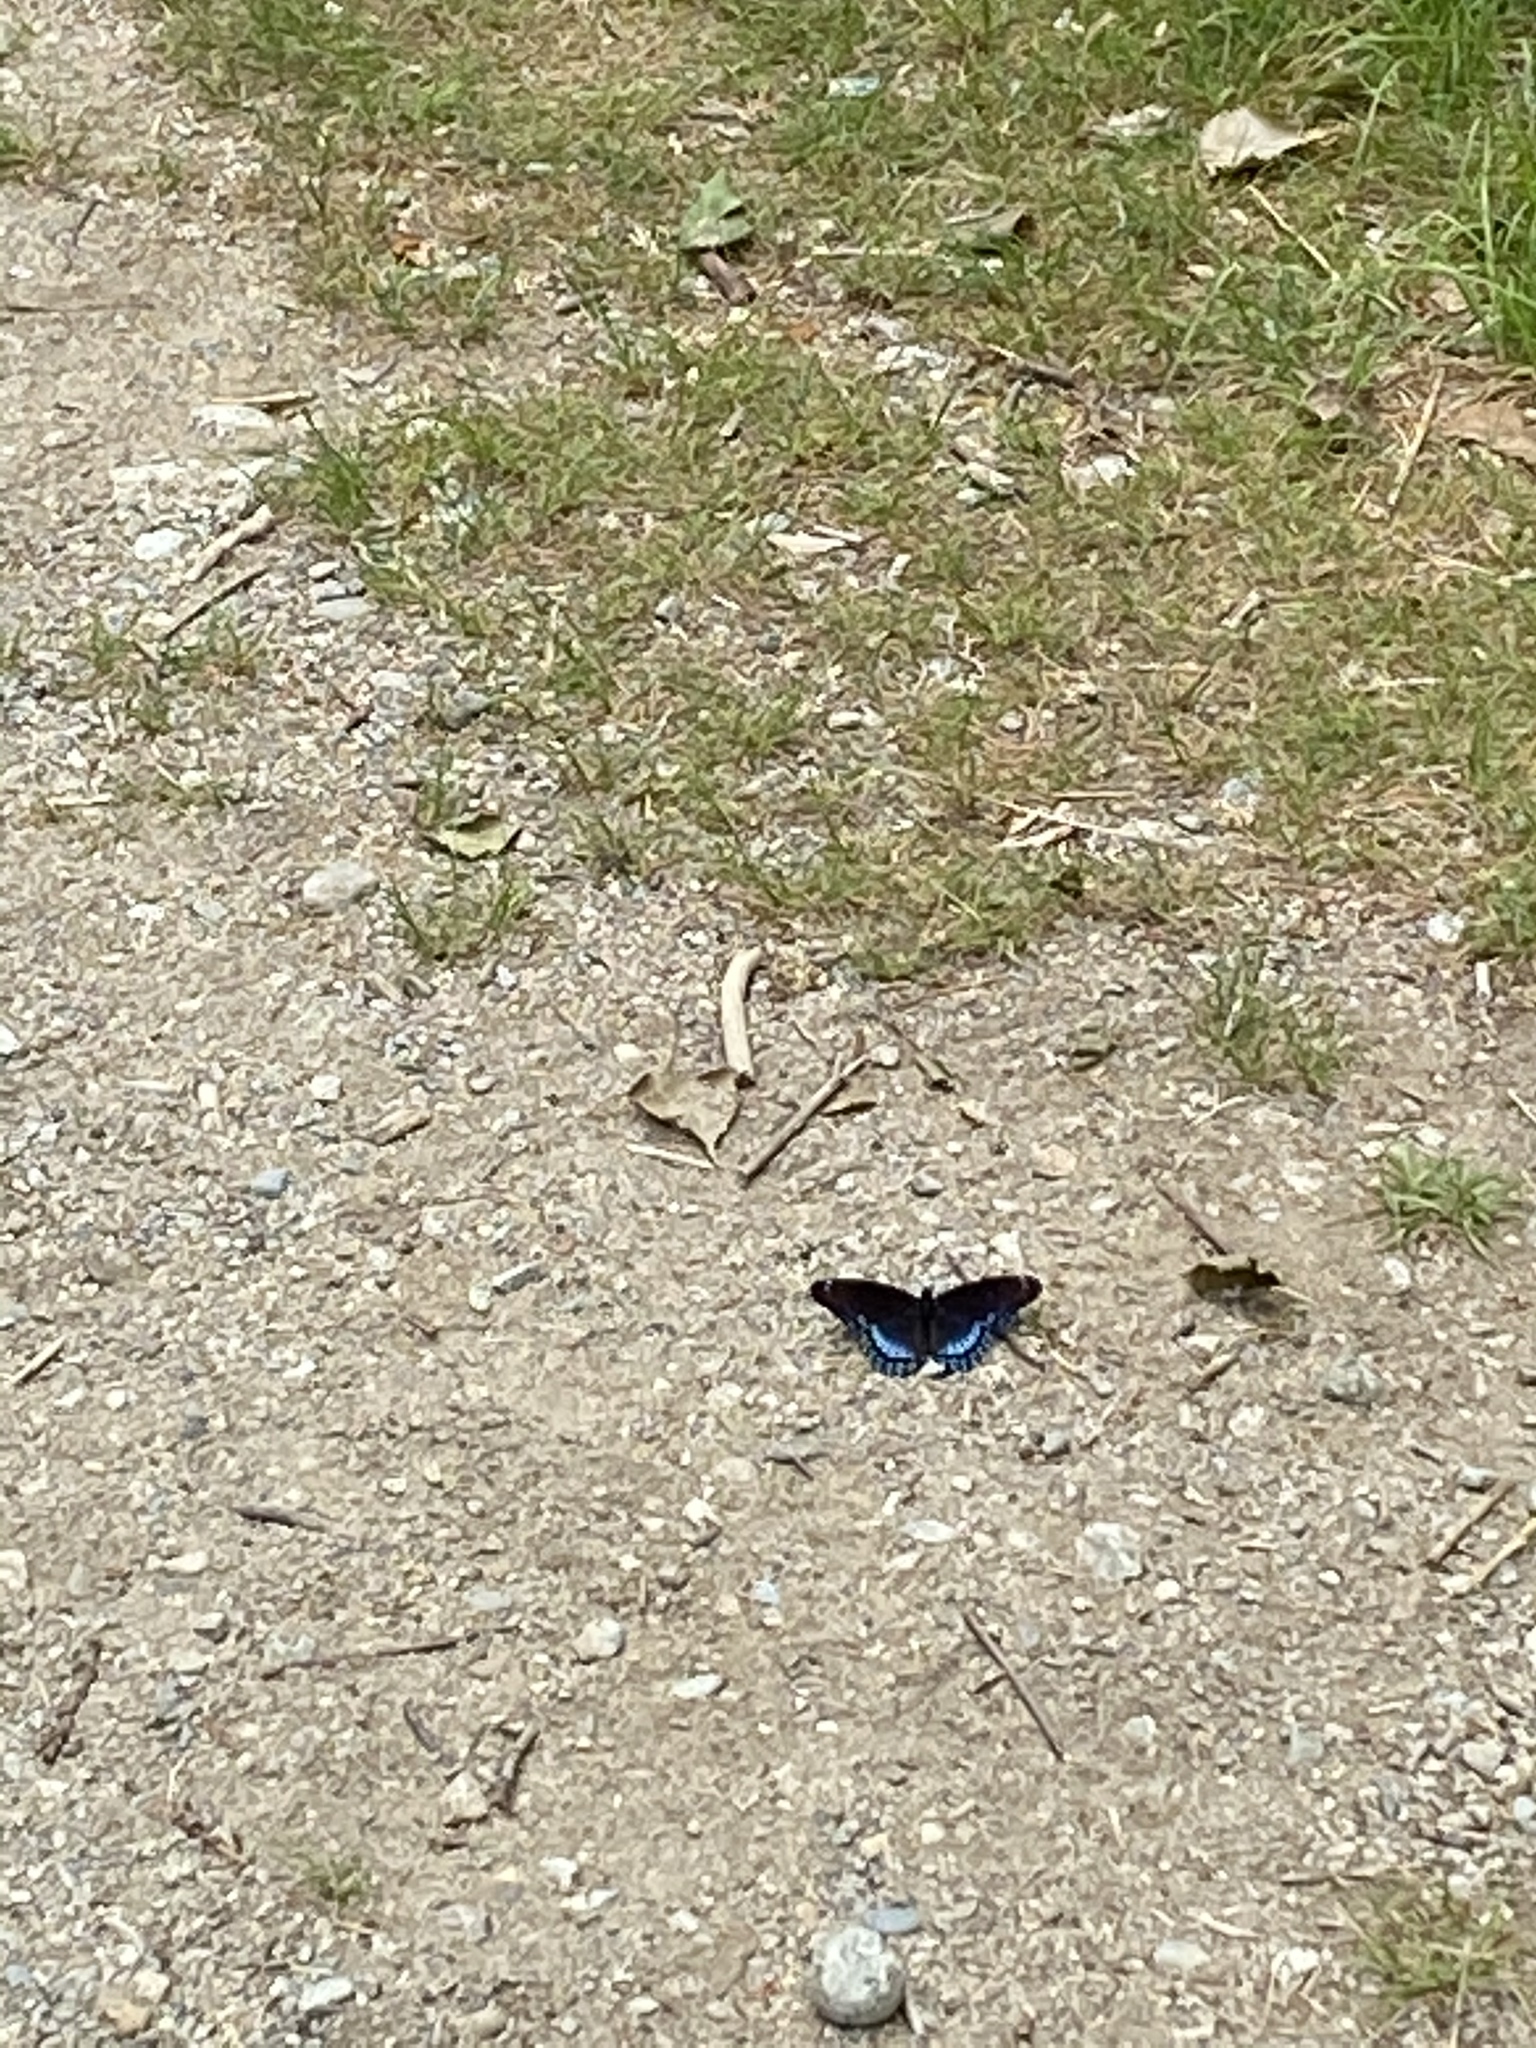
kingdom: Animalia
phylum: Arthropoda
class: Insecta
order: Lepidoptera
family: Nymphalidae
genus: Limenitis
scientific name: Limenitis arthemis
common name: Red-spotted admiral
